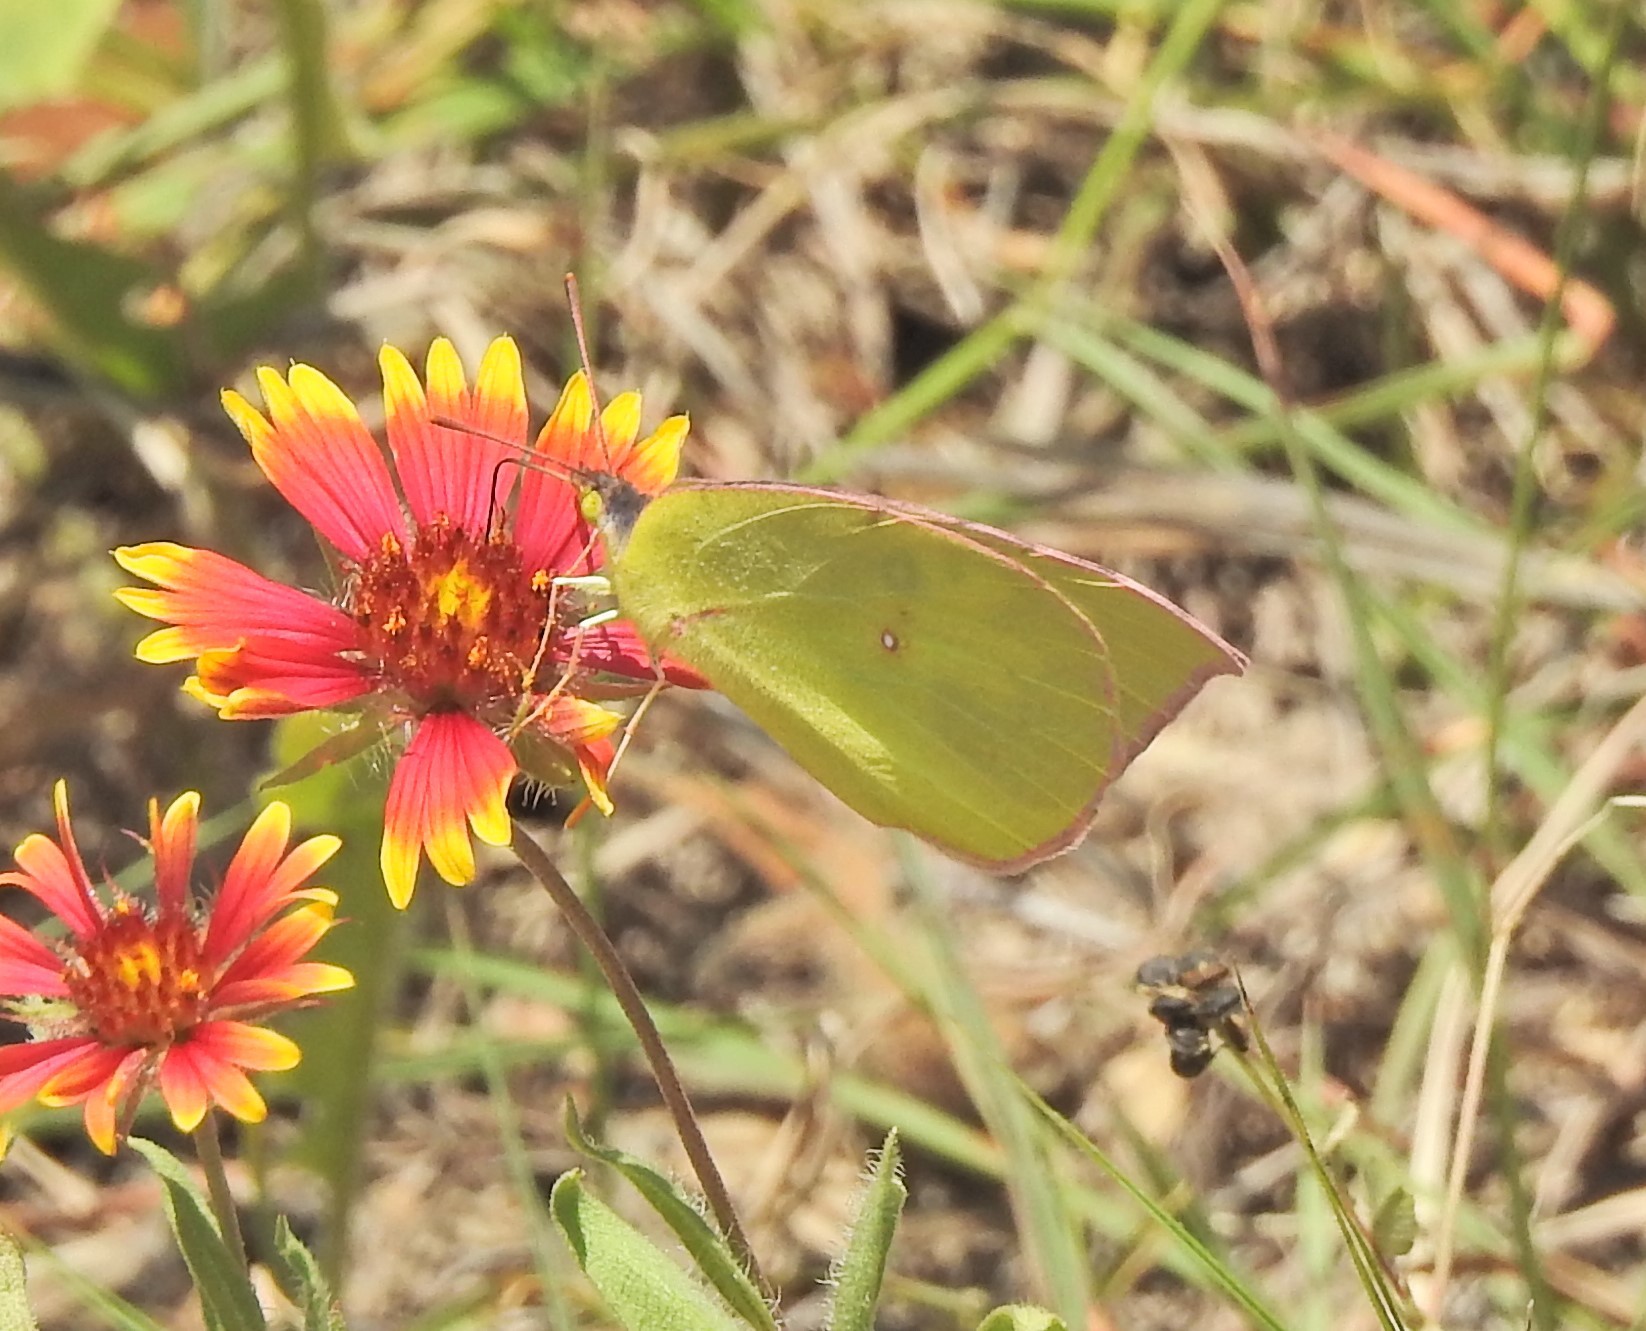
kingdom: Animalia
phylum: Arthropoda
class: Insecta
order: Lepidoptera
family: Pieridae
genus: Zerene
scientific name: Zerene cesonia
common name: Southern dogface
